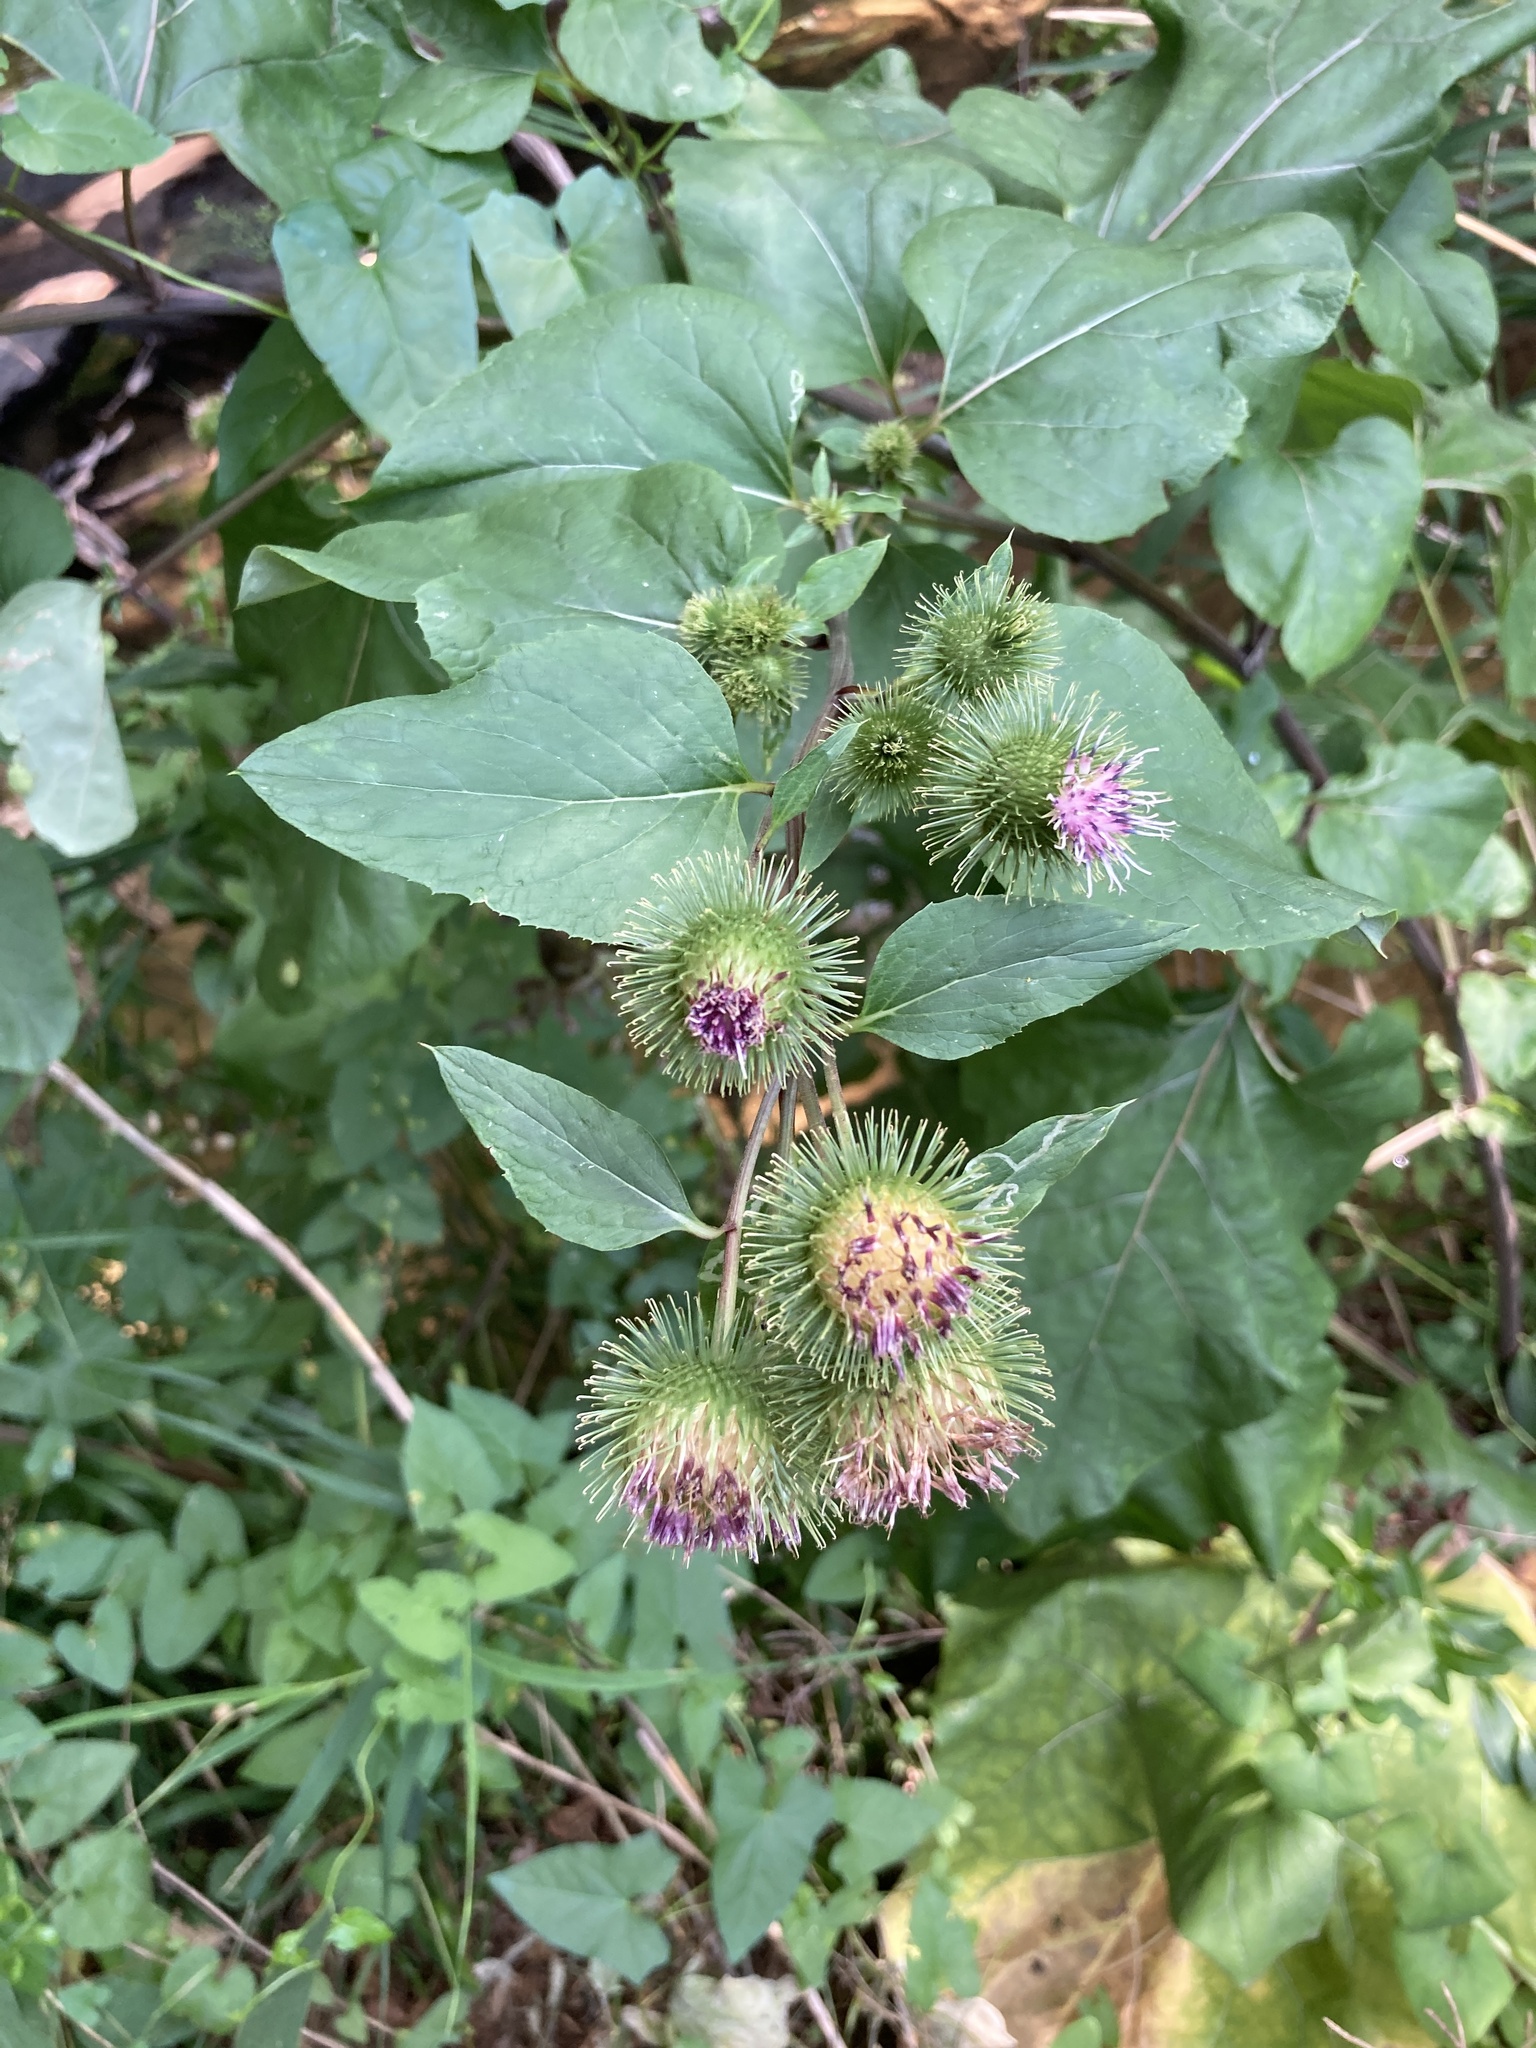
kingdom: Plantae
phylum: Tracheophyta
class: Magnoliopsida
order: Asterales
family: Asteraceae
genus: Arctium
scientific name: Arctium nemorosum
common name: Wood burdock
